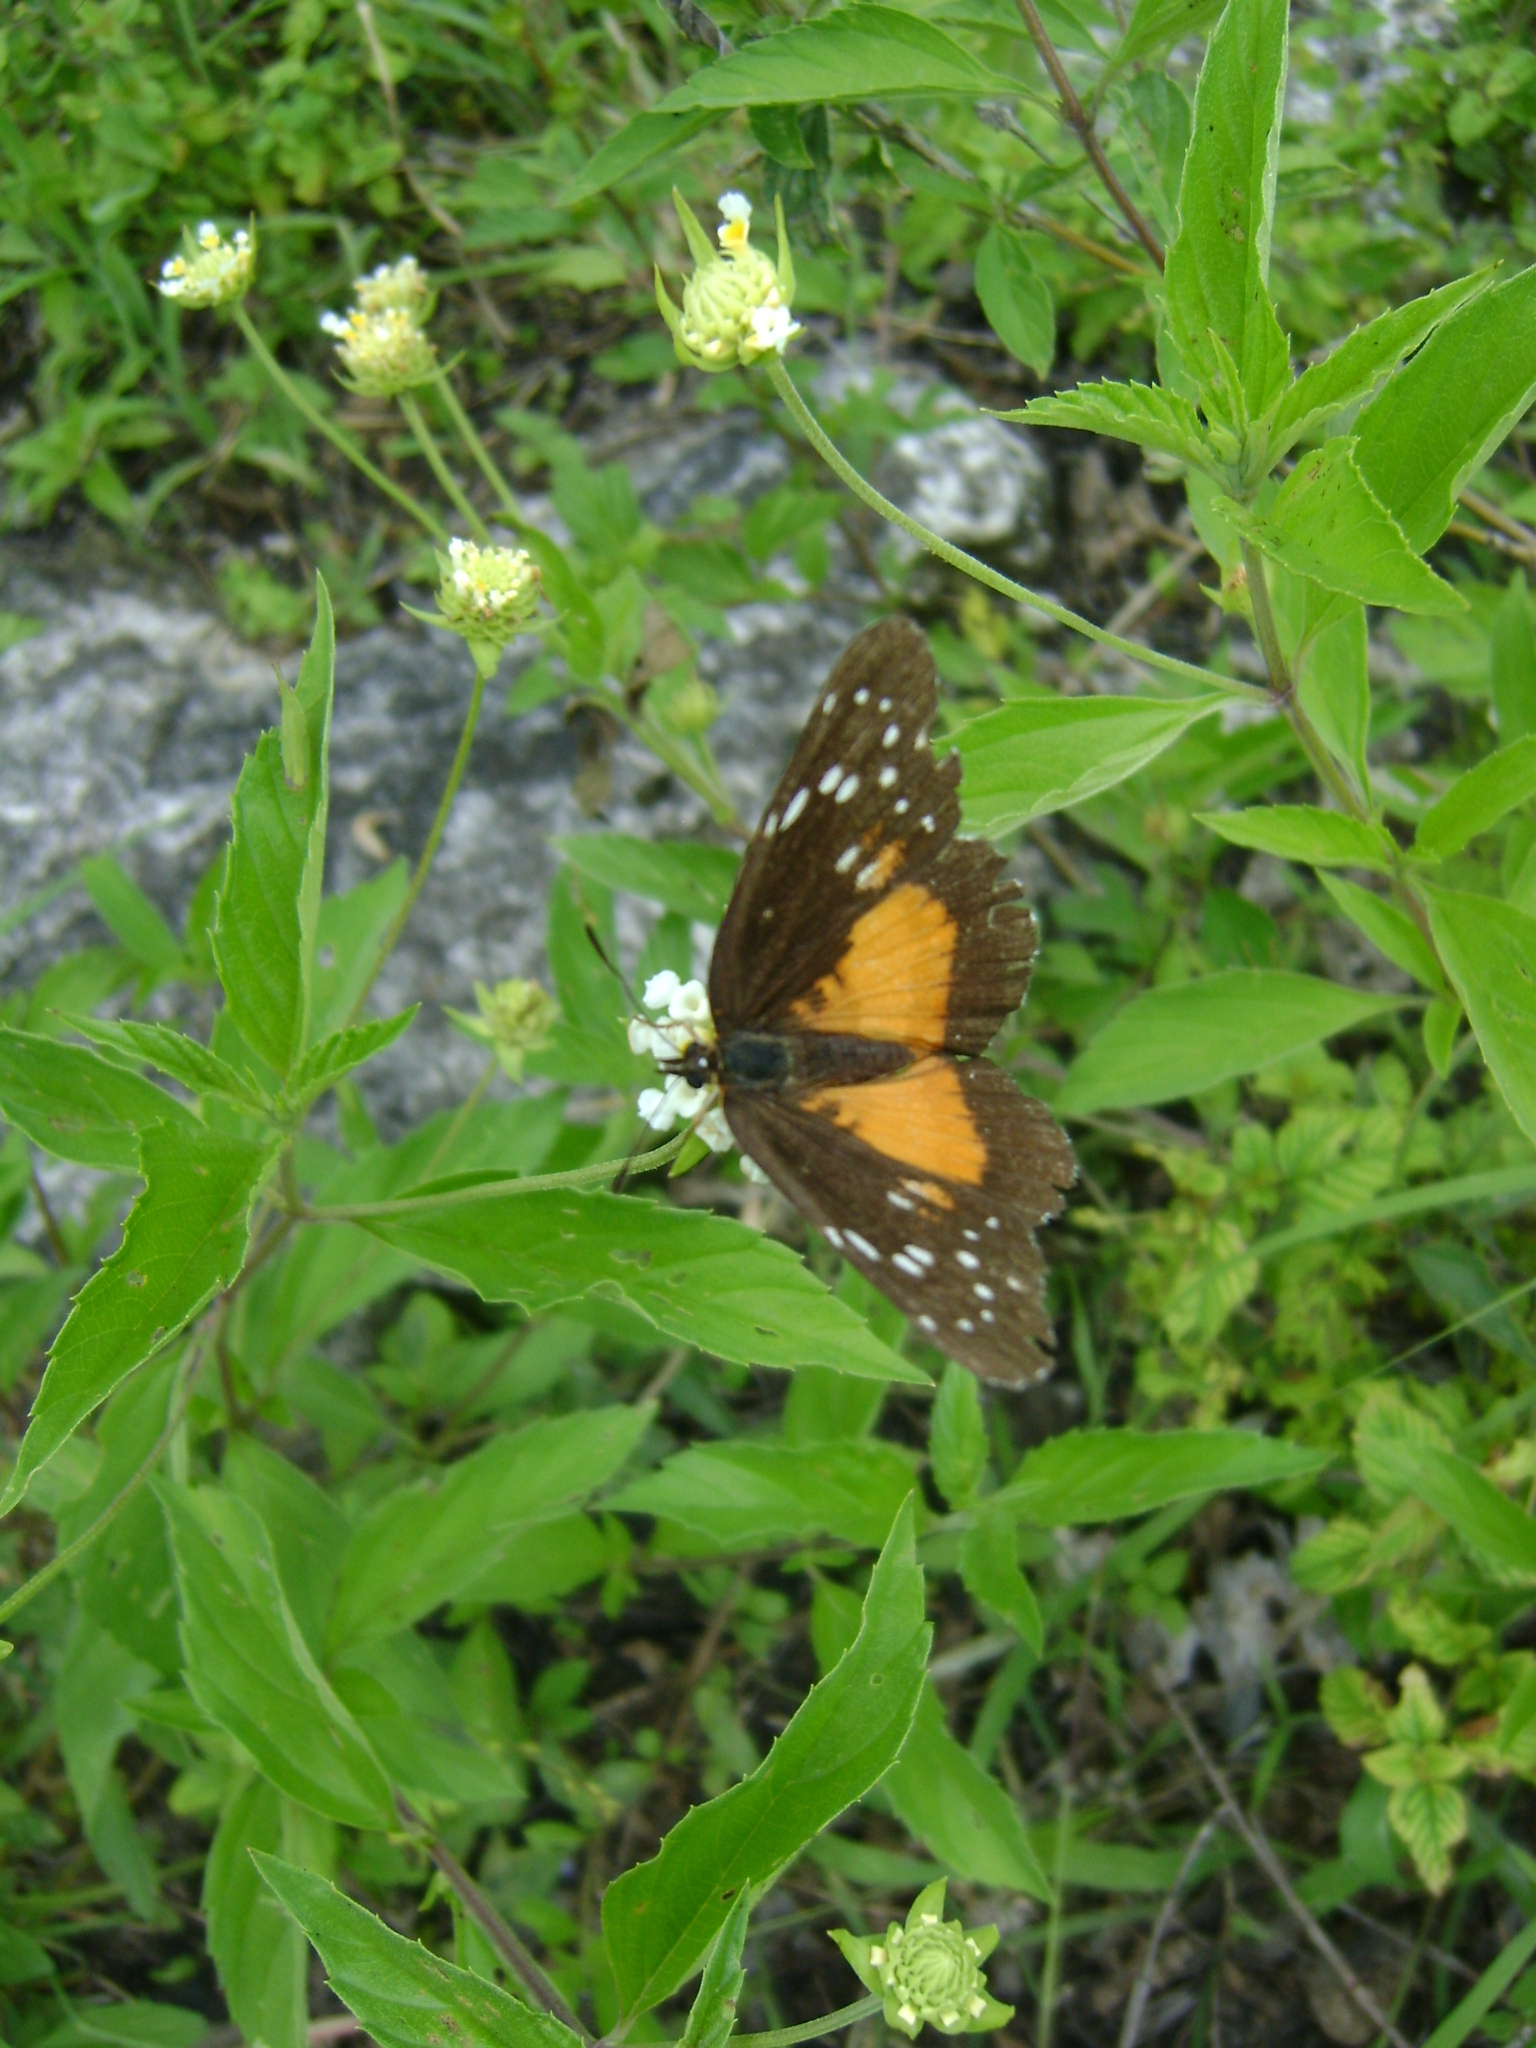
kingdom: Animalia
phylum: Arthropoda
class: Insecta
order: Lepidoptera
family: Nymphalidae
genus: Chlosyne
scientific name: Chlosyne lacinia
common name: Bordered patch
